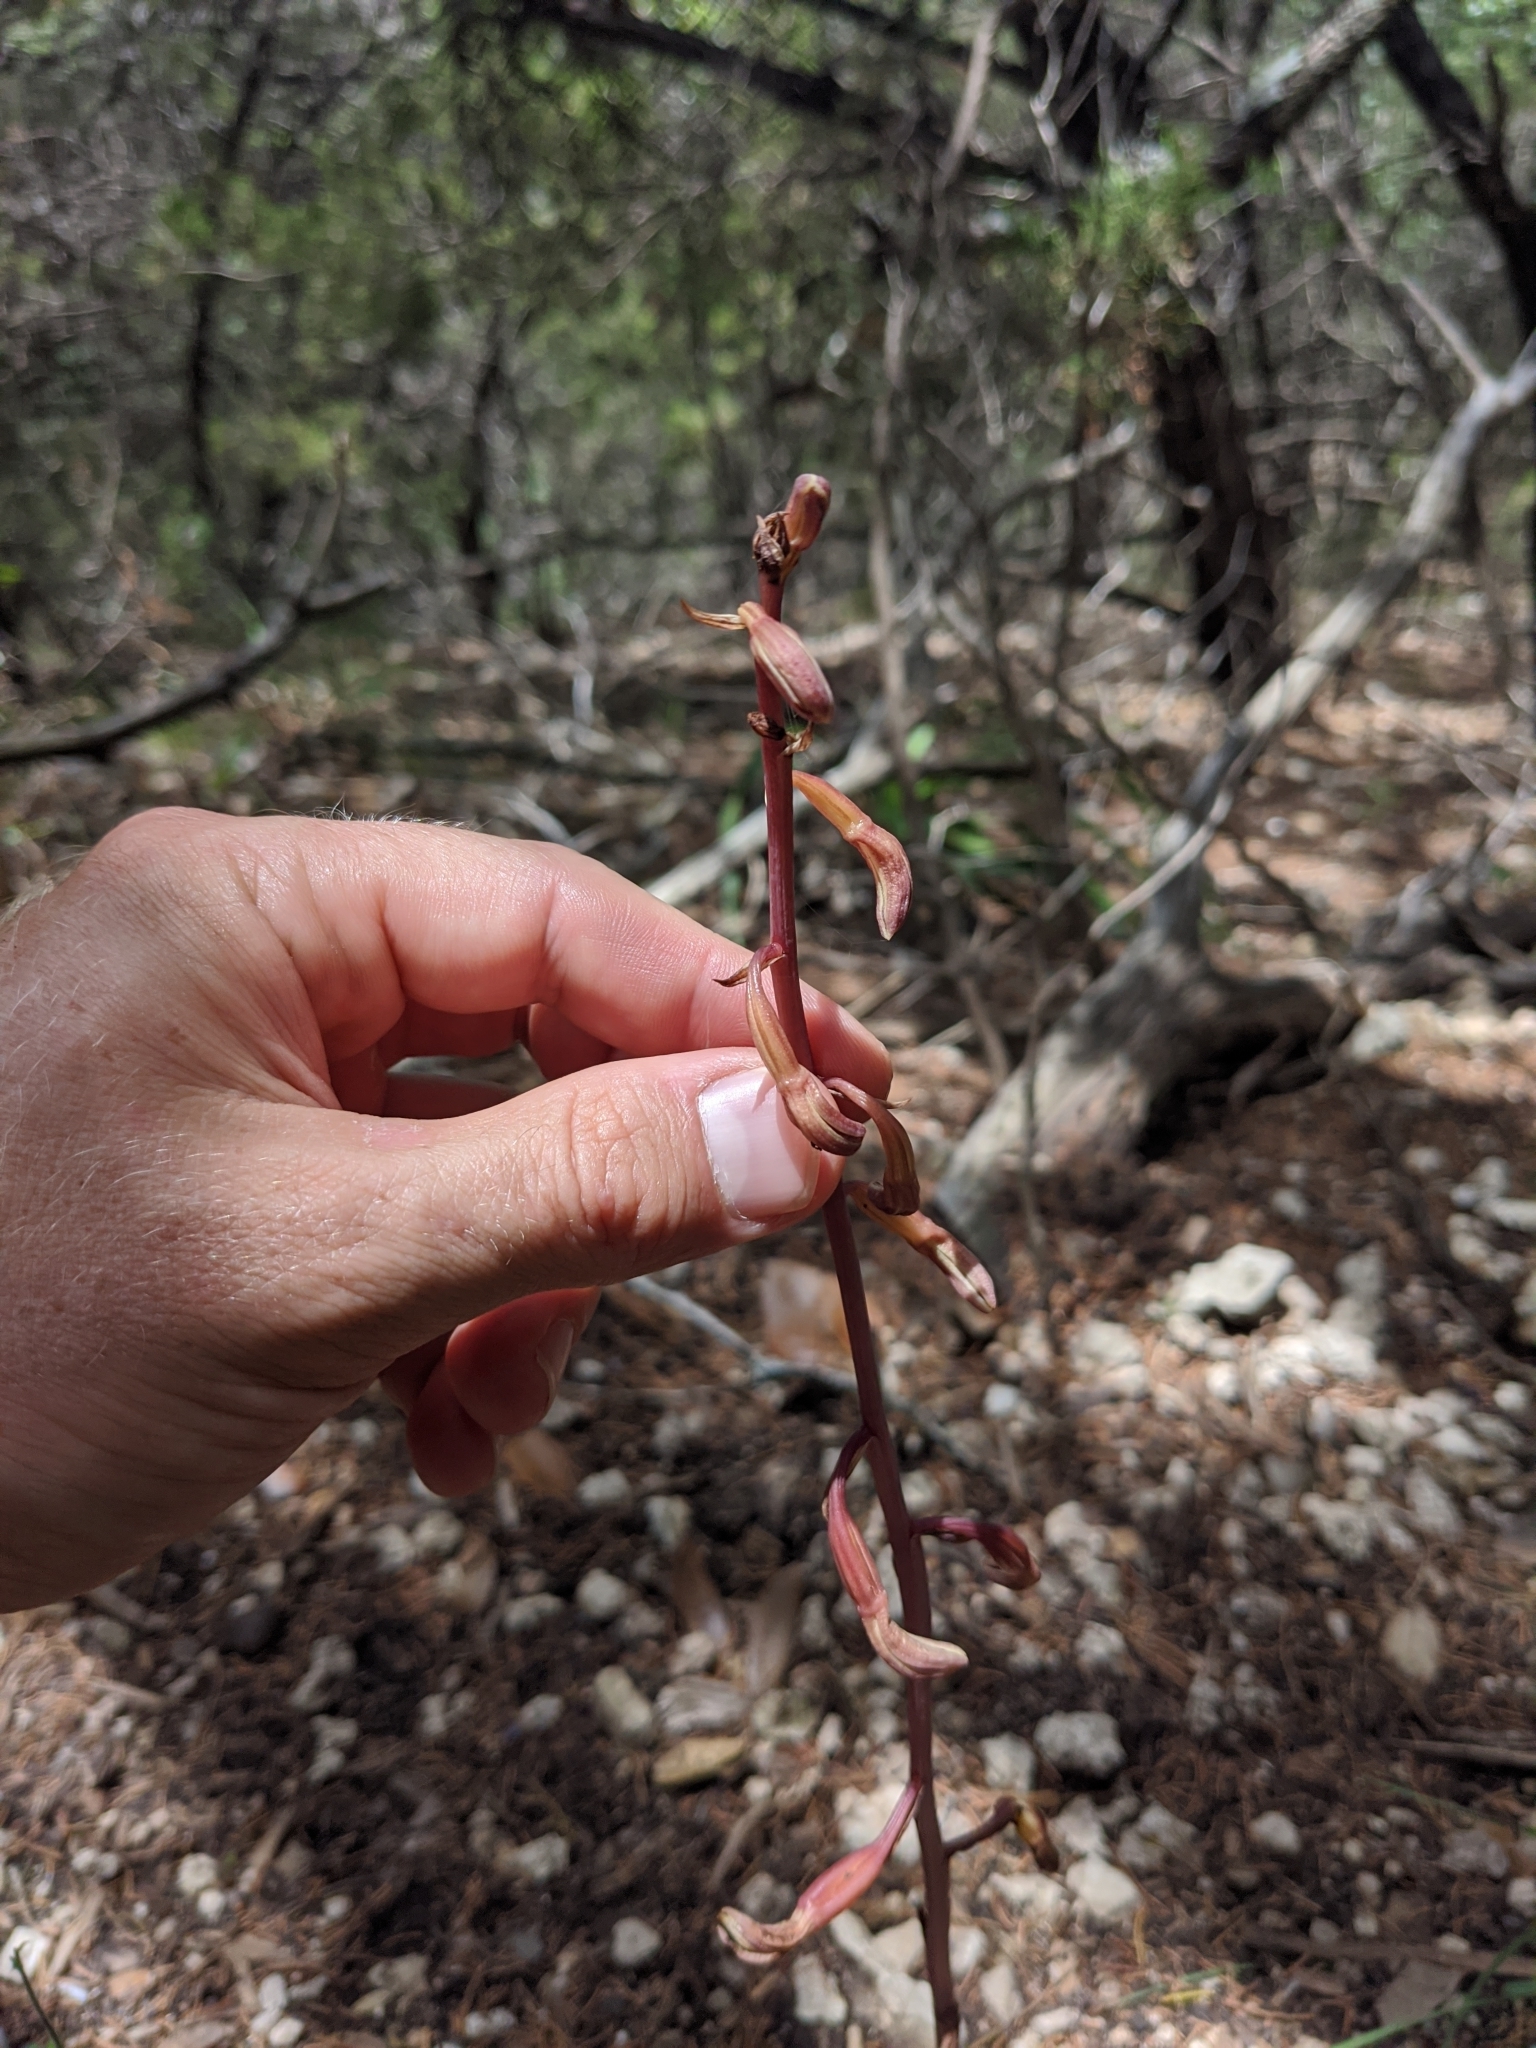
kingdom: Plantae
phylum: Tracheophyta
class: Liliopsida
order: Asparagales
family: Orchidaceae
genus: Bletia
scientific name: Bletia arizonica
